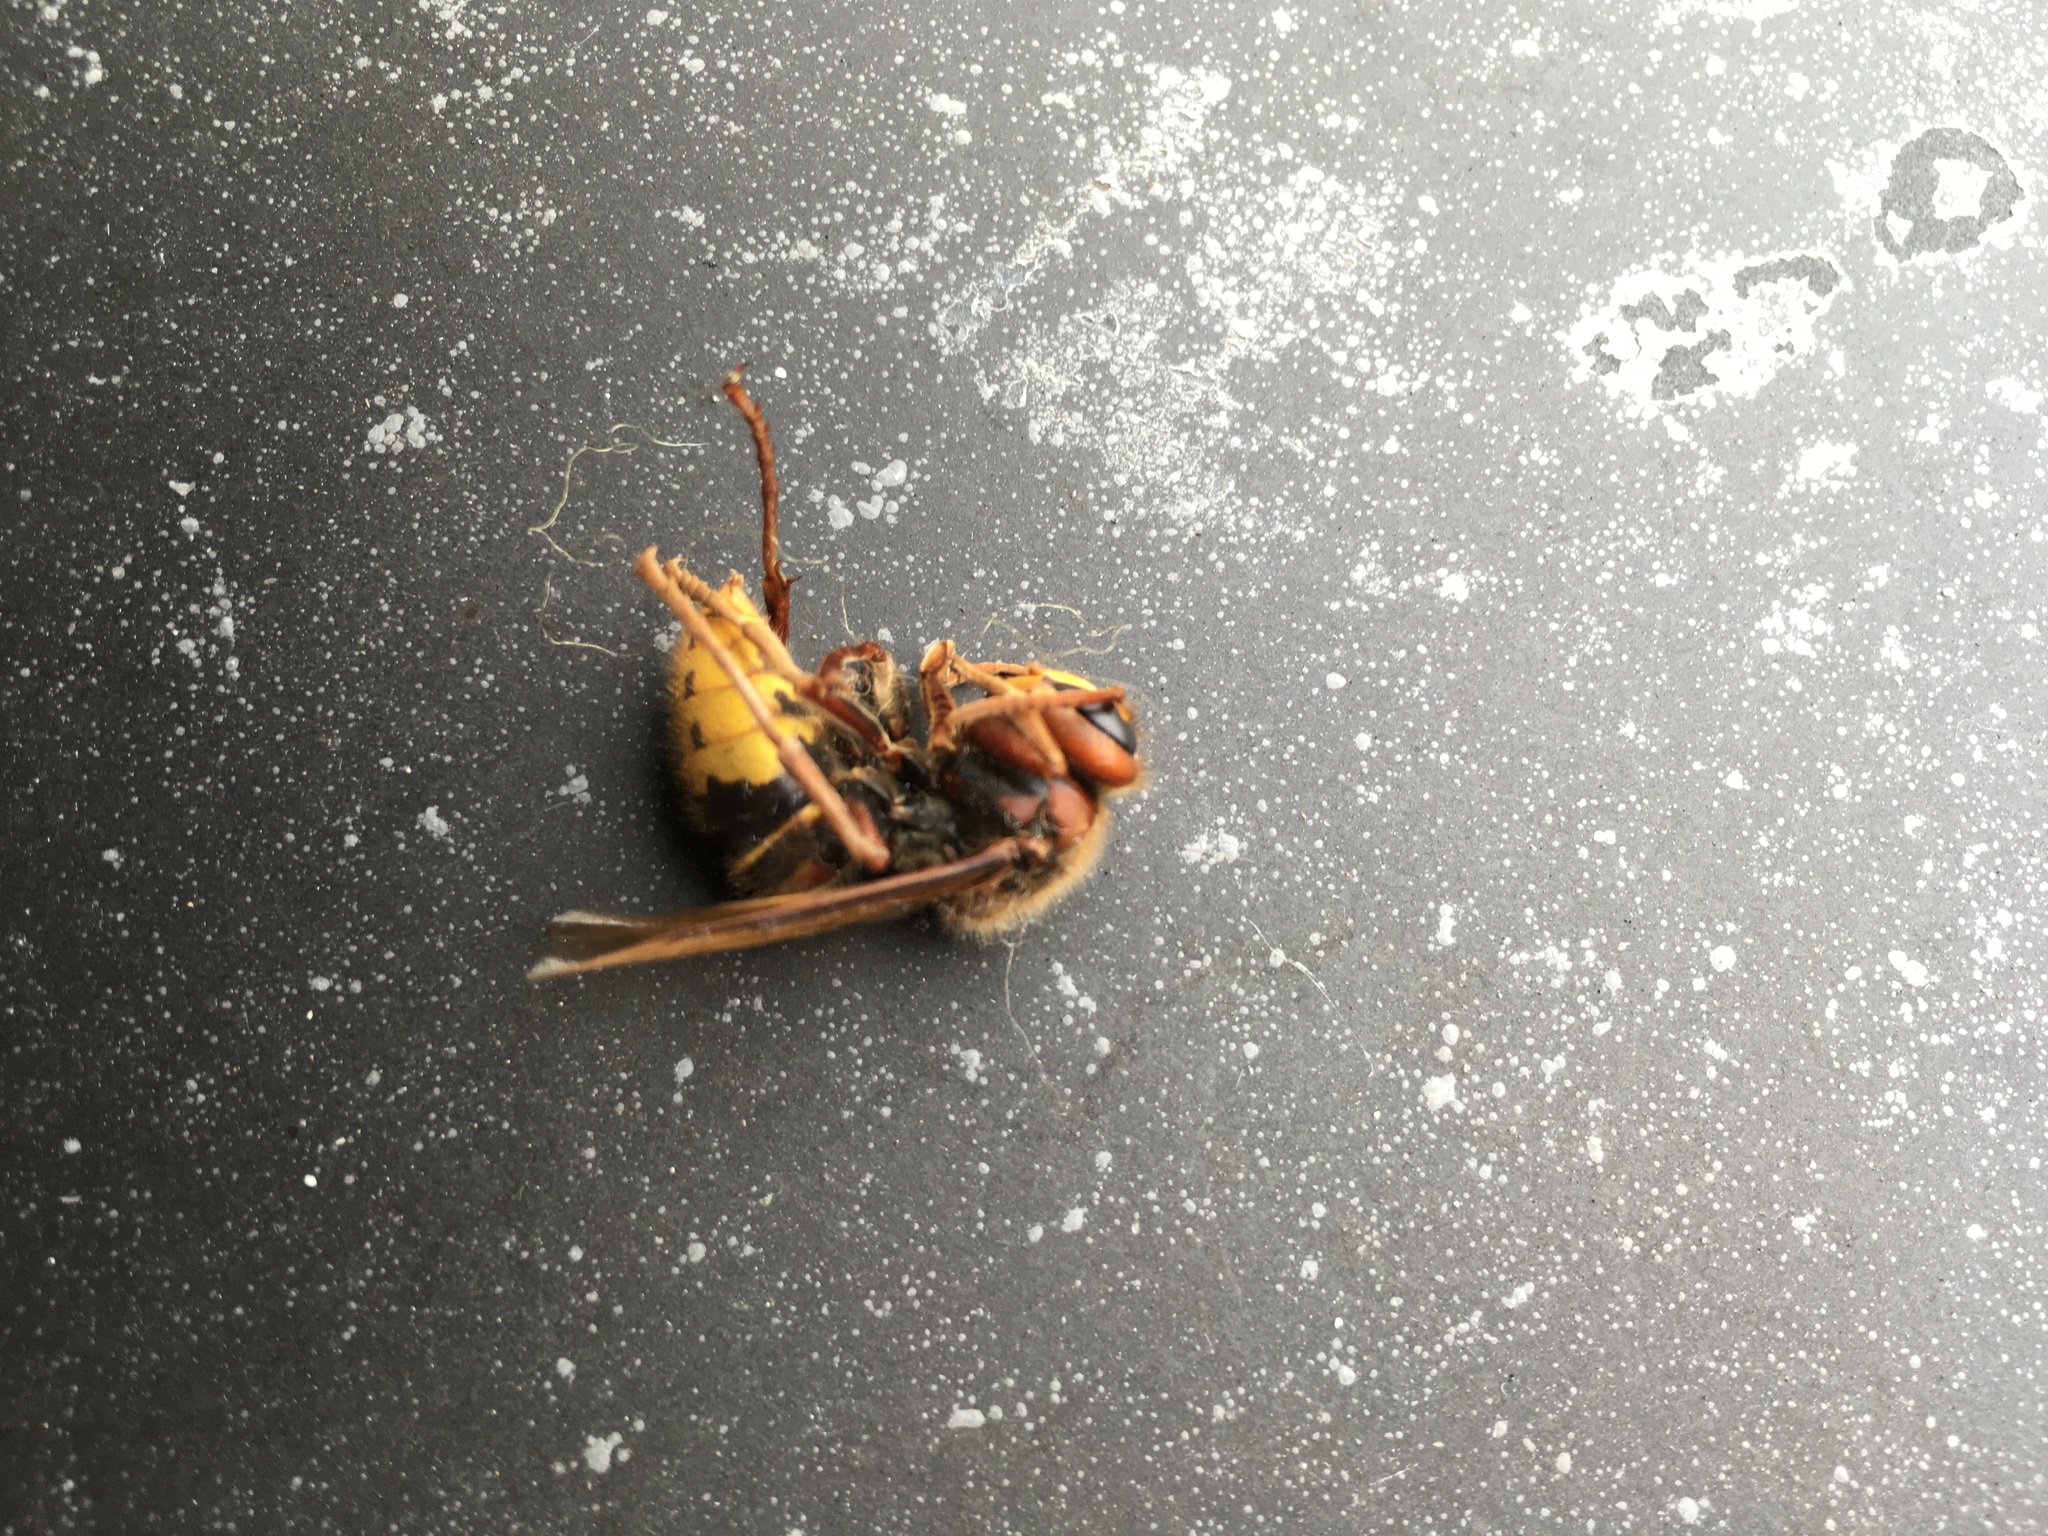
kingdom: Animalia
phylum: Arthropoda
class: Insecta
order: Hymenoptera
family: Vespidae
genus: Vespa
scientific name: Vespa crabro
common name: Hornet
